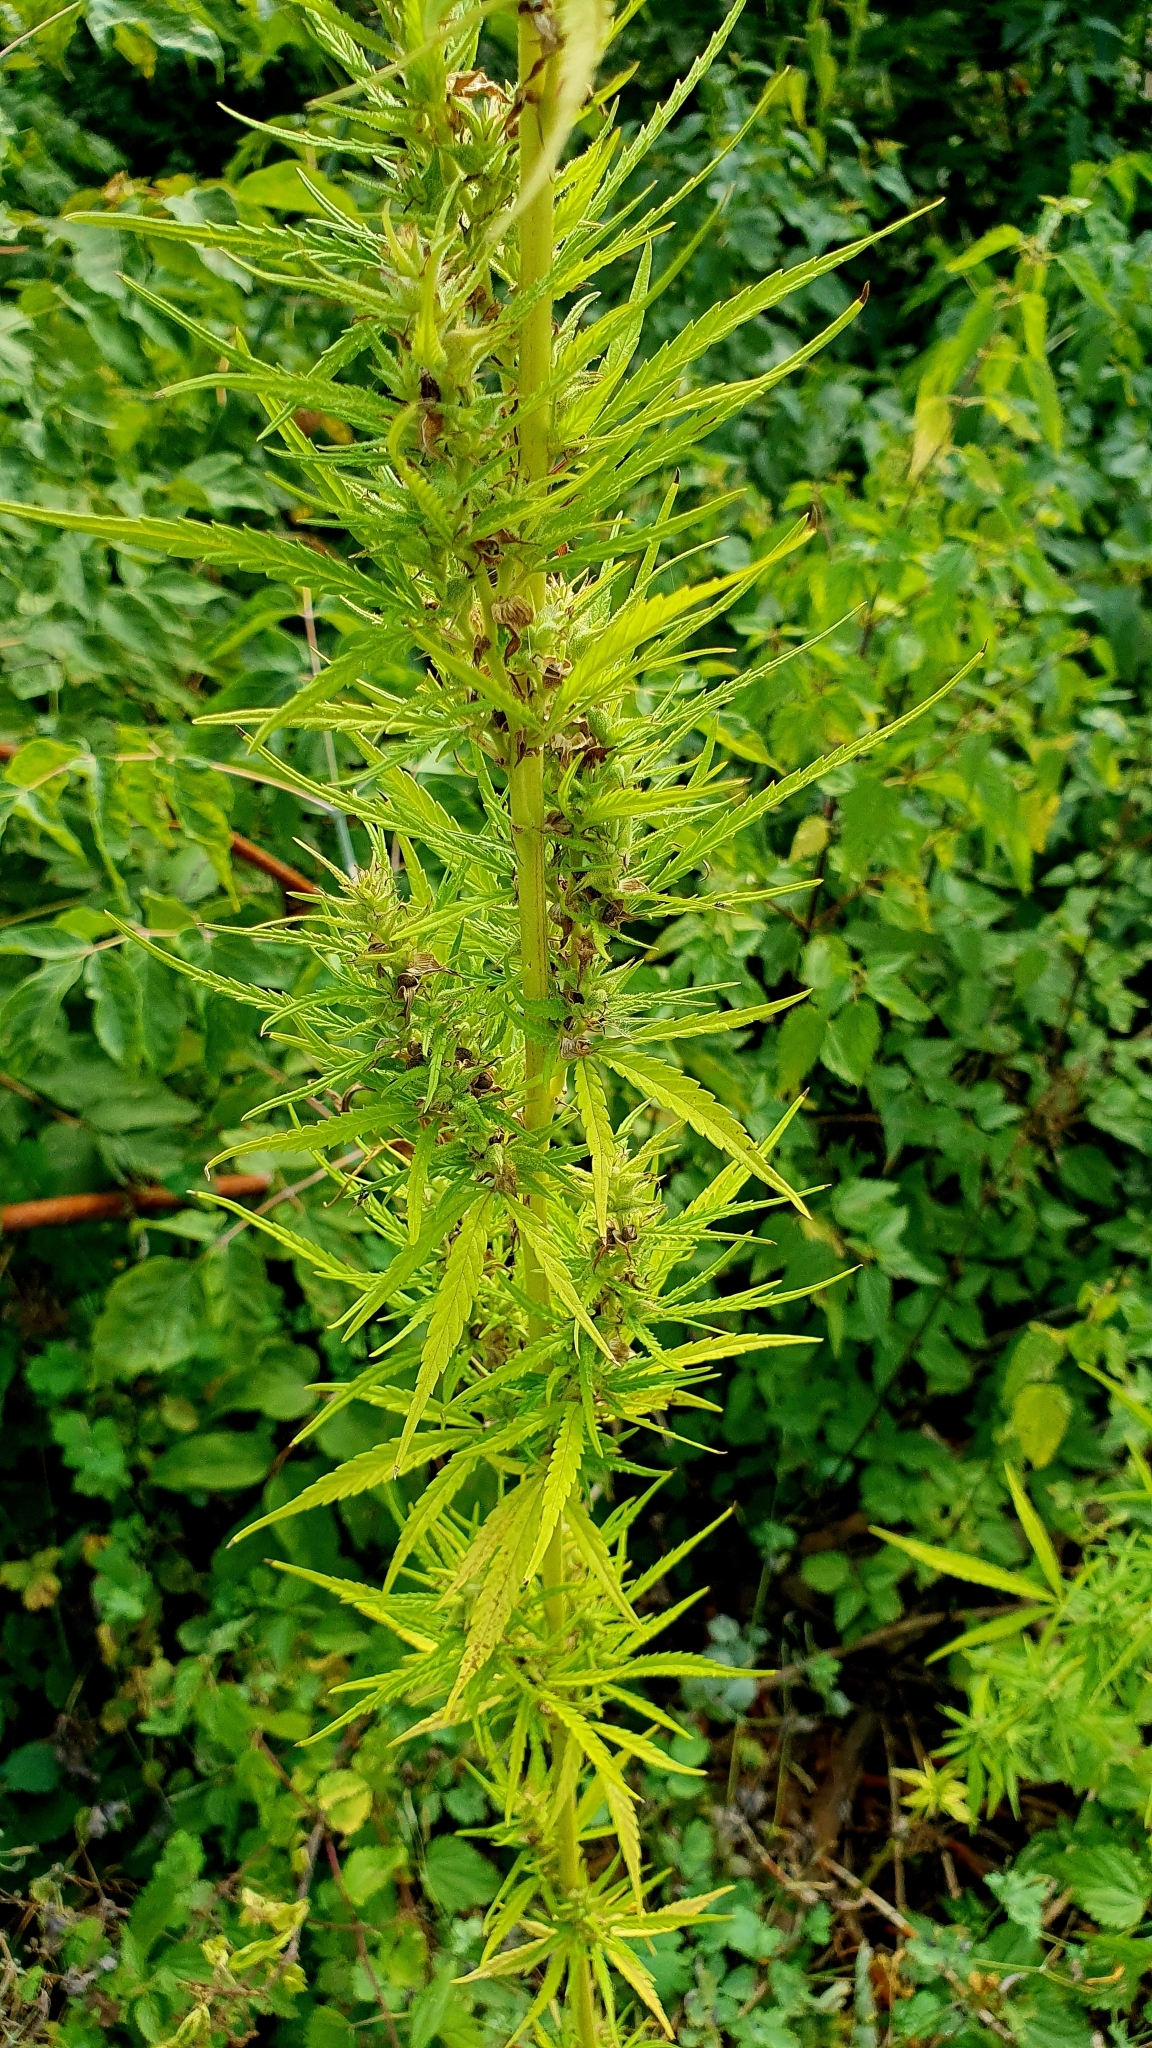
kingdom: Plantae
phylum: Tracheophyta
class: Magnoliopsida
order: Rosales
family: Cannabaceae
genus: Cannabis
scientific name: Cannabis sativa
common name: Hemp
